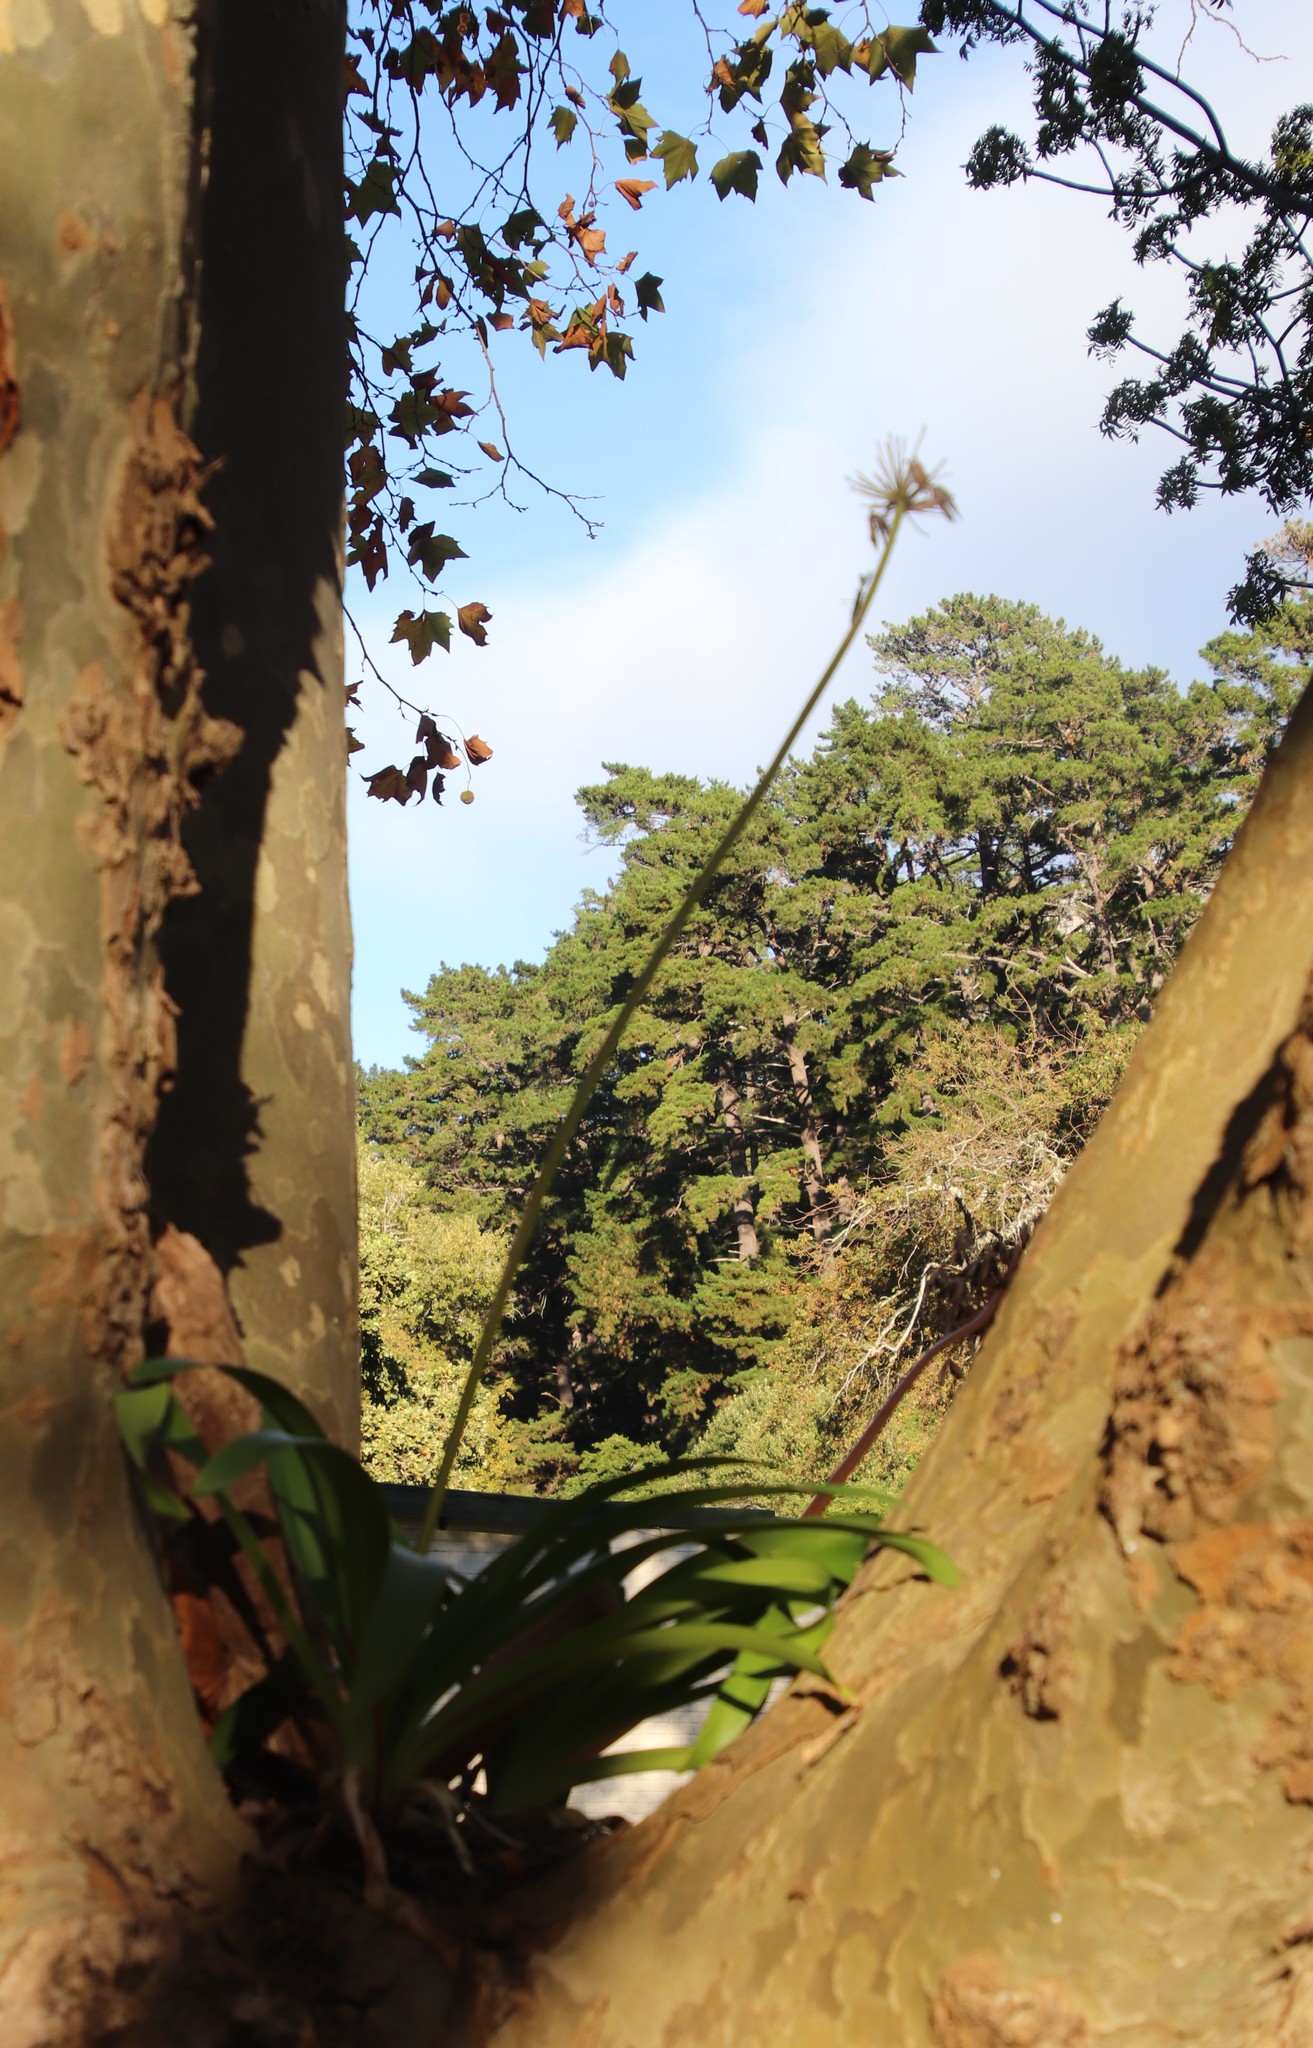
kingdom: Plantae
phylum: Tracheophyta
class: Liliopsida
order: Asparagales
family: Amaryllidaceae
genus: Agapanthus
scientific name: Agapanthus praecox
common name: African-lily
